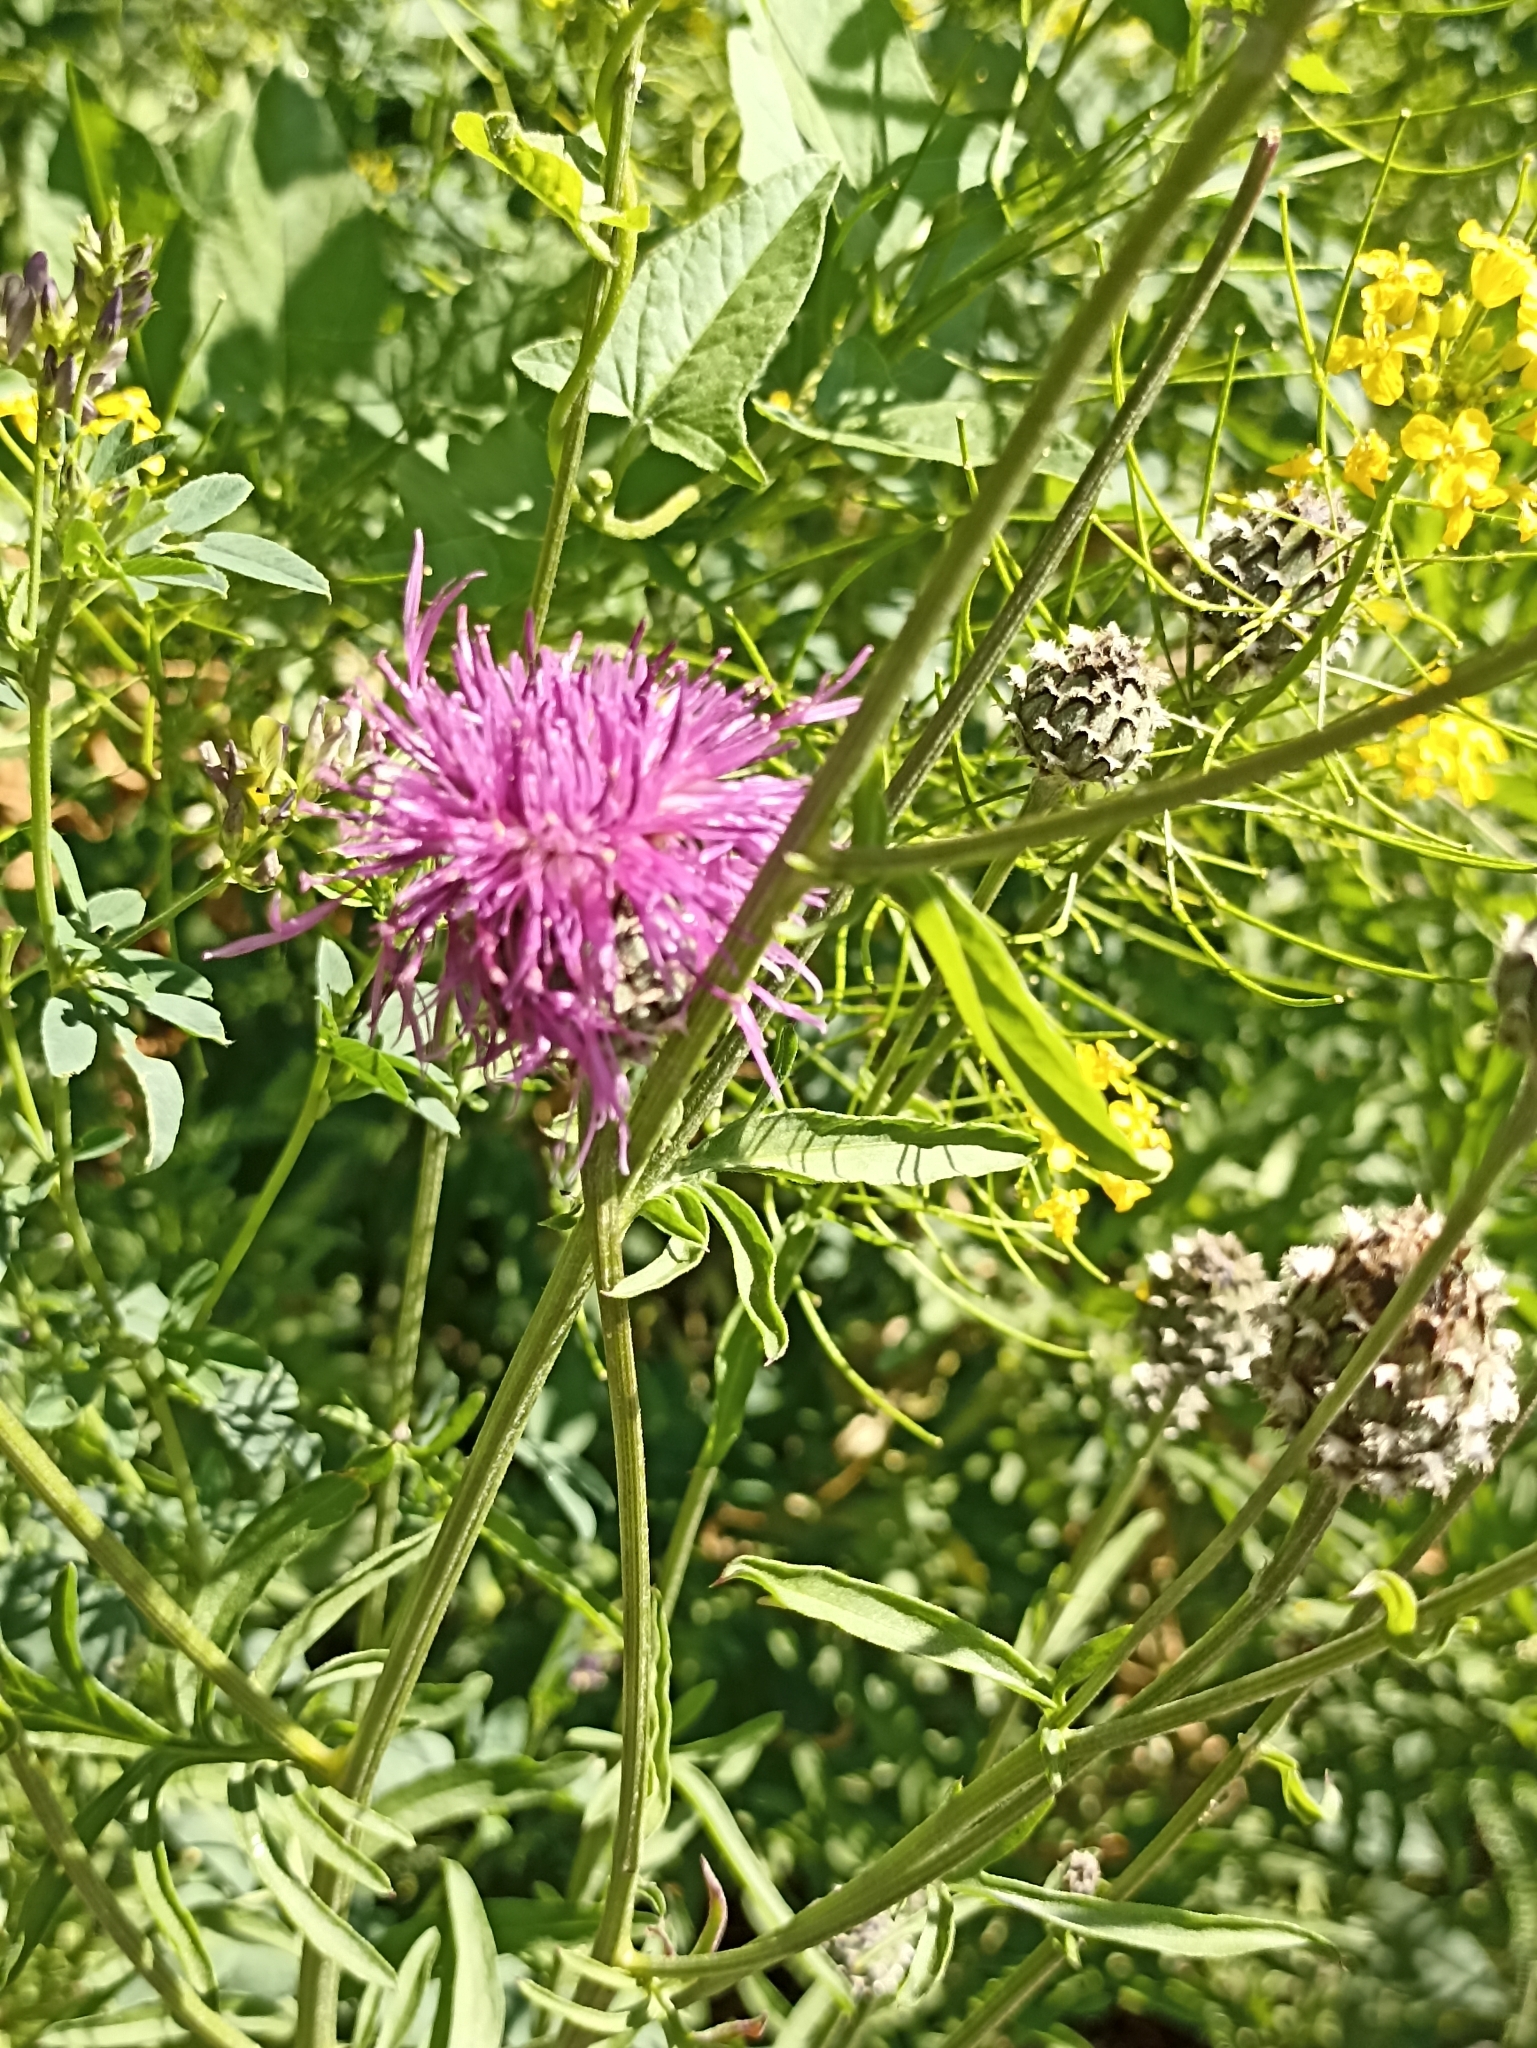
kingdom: Plantae
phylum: Tracheophyta
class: Magnoliopsida
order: Asterales
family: Asteraceae
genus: Centaurea
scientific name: Centaurea scabiosa
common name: Greater knapweed
